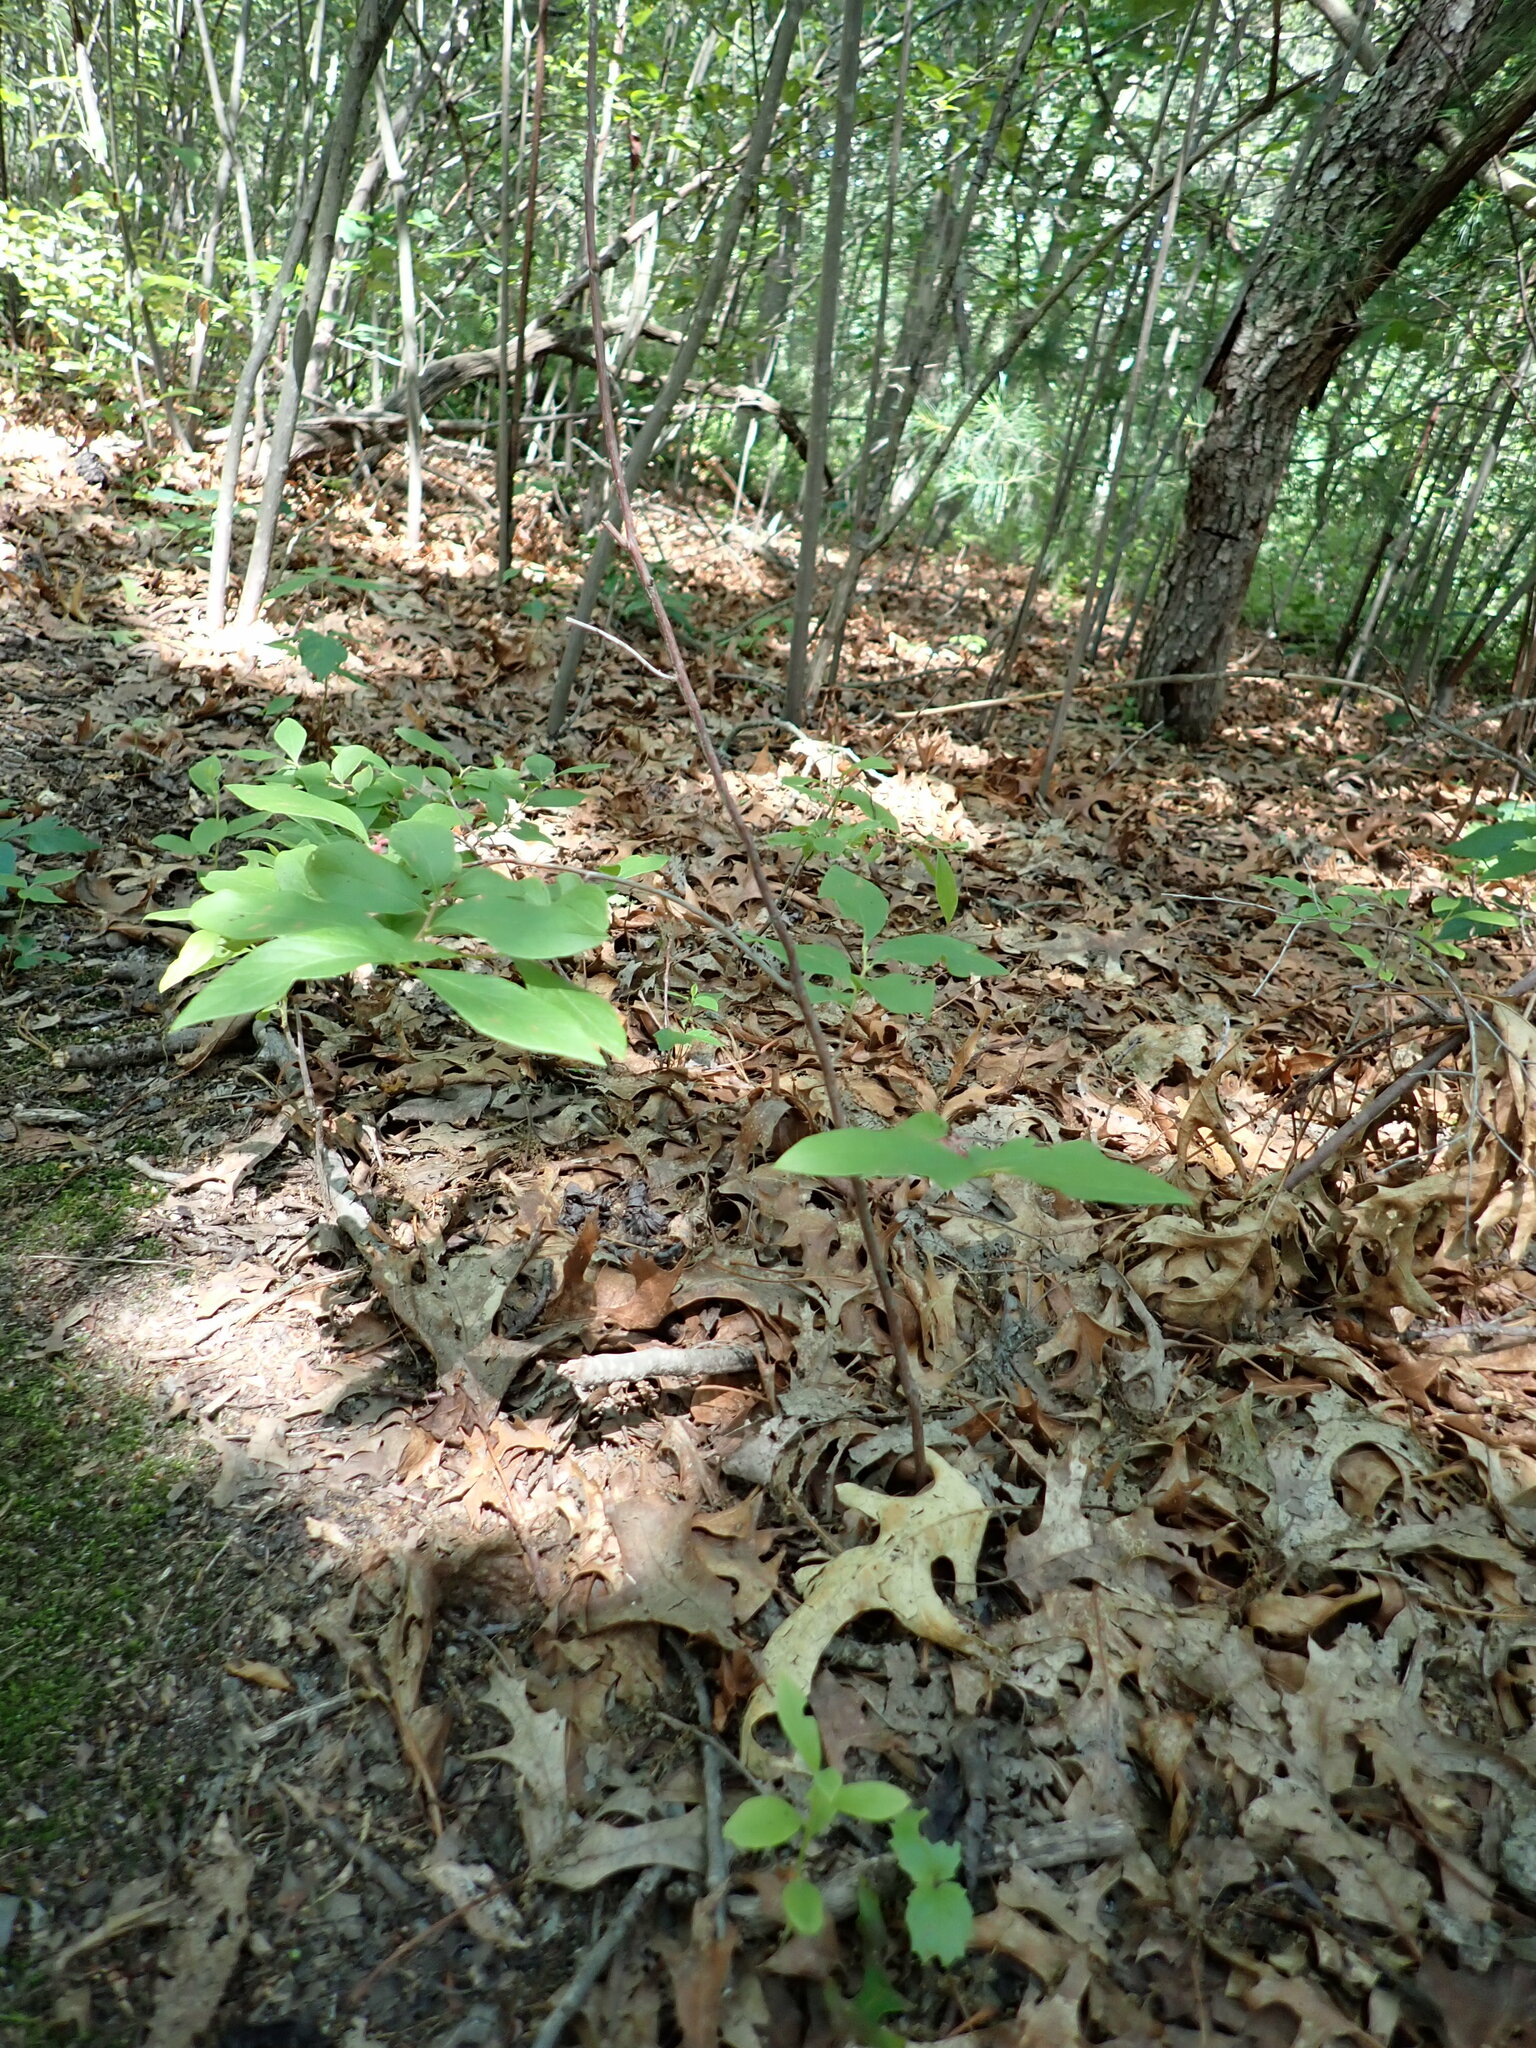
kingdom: Plantae
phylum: Tracheophyta
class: Magnoliopsida
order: Ericales
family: Ericaceae
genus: Gaylussacia
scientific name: Gaylussacia baccata
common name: Black huckleberry
